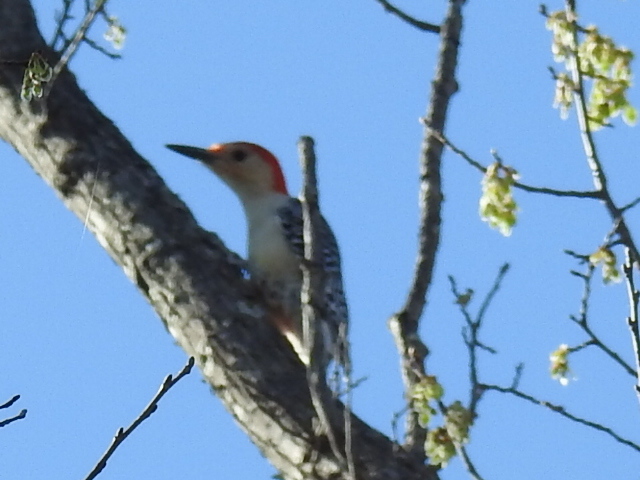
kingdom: Animalia
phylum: Chordata
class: Aves
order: Piciformes
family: Picidae
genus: Melanerpes
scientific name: Melanerpes carolinus
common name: Red-bellied woodpecker
